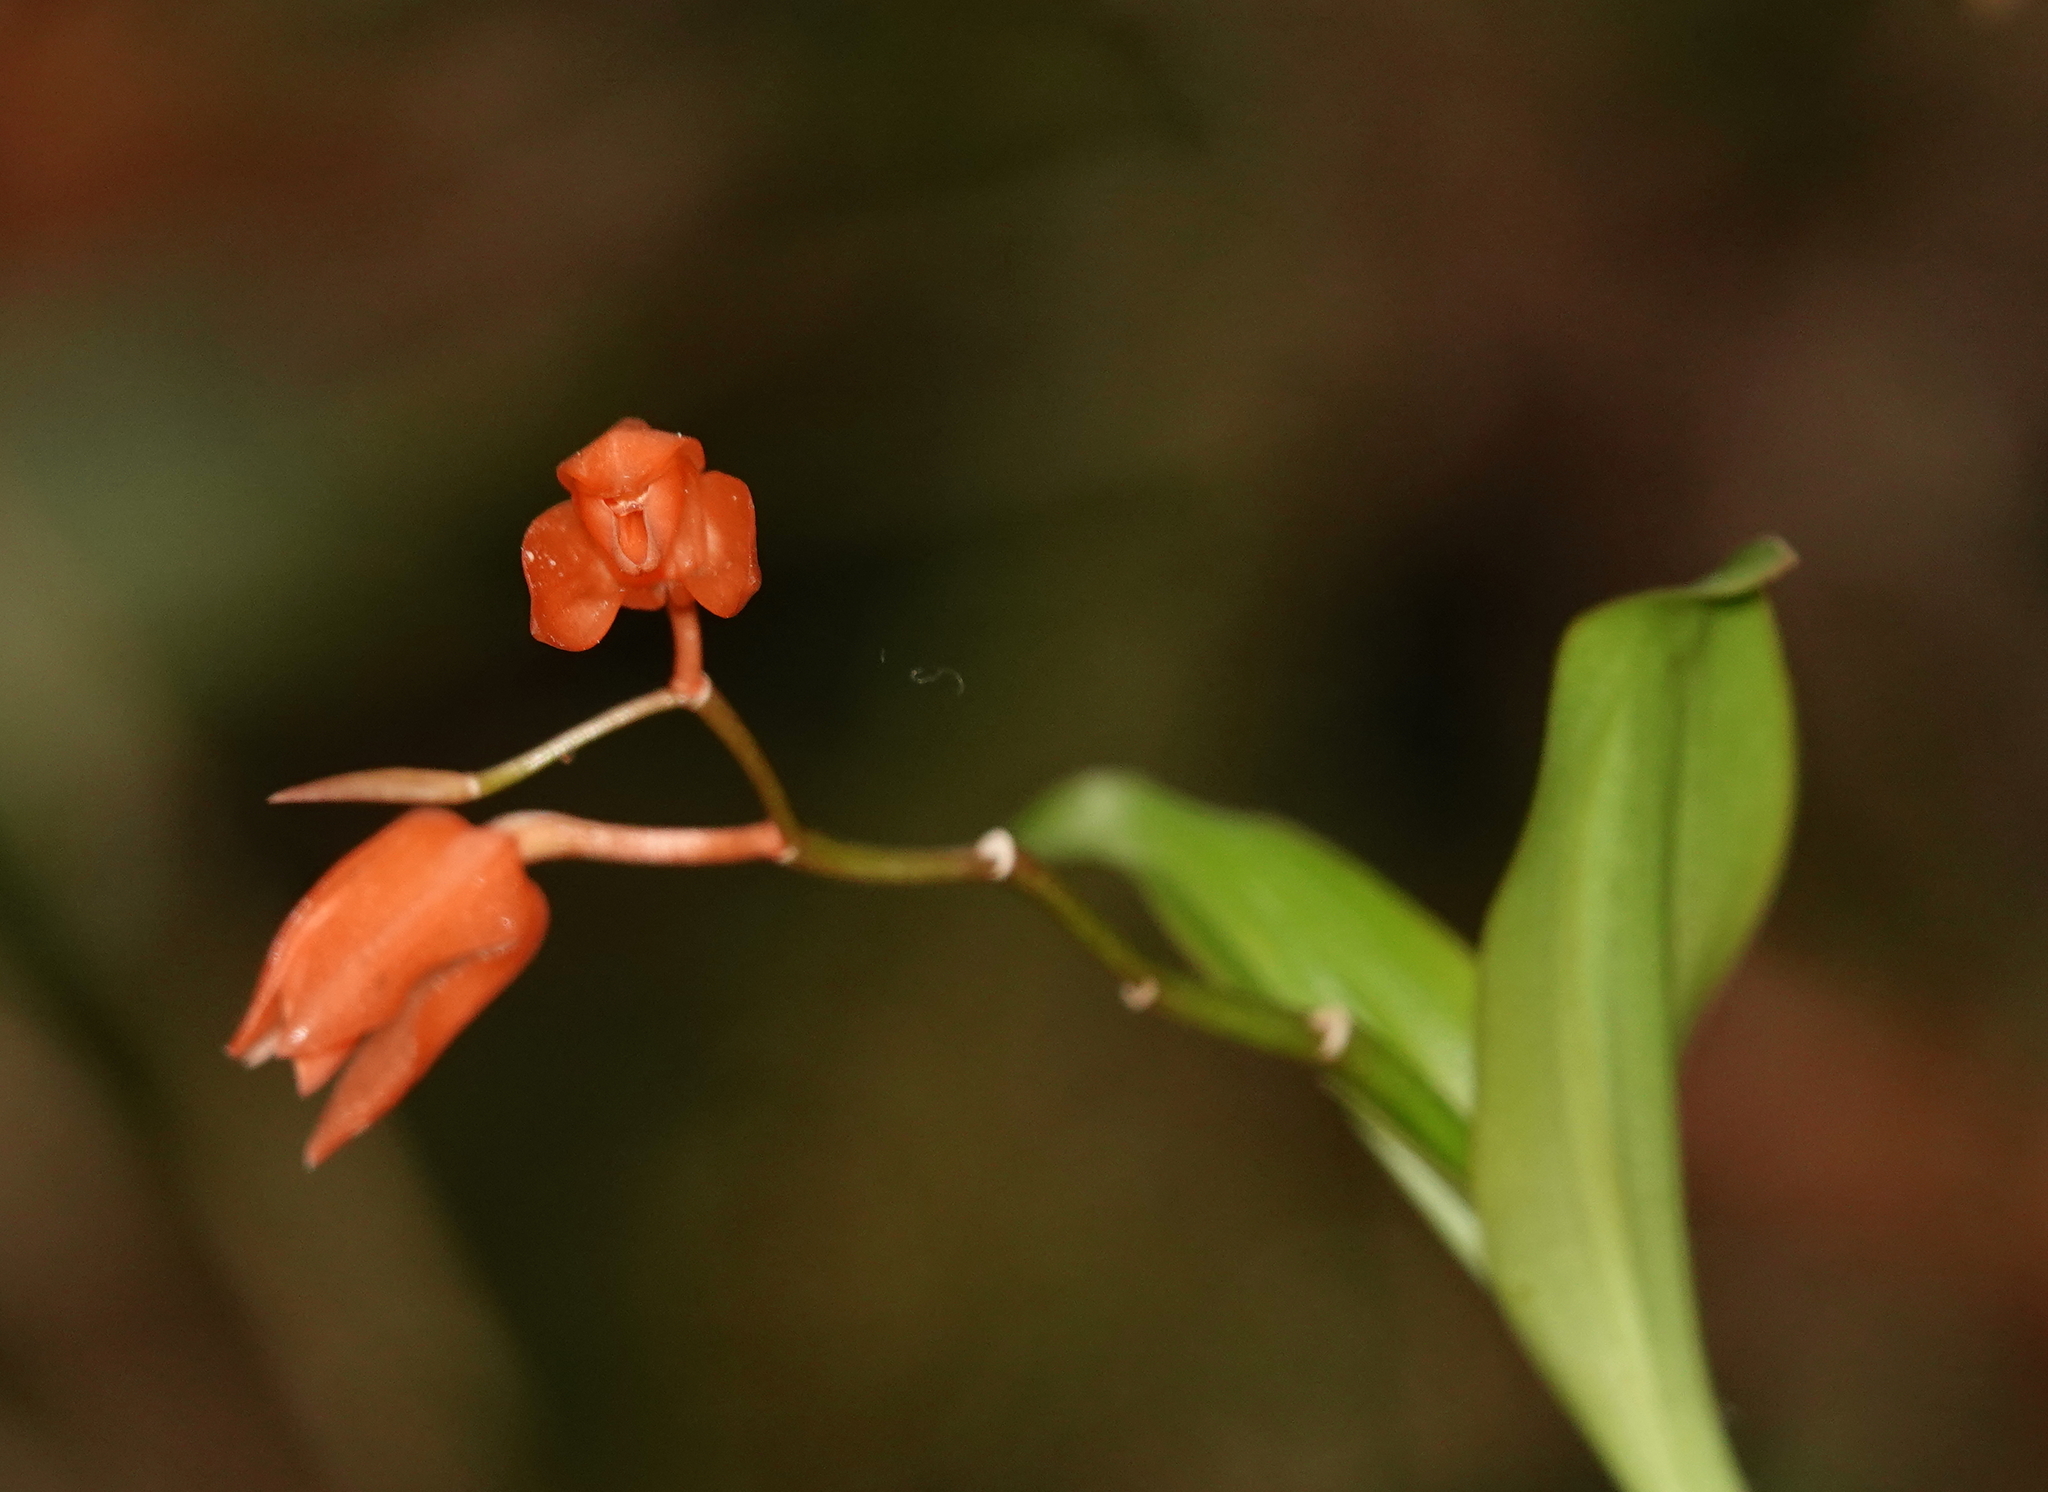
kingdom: Plantae
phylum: Tracheophyta
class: Liliopsida
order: Asparagales
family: Orchidaceae
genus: Coelogyne
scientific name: Coelogyne miniata
